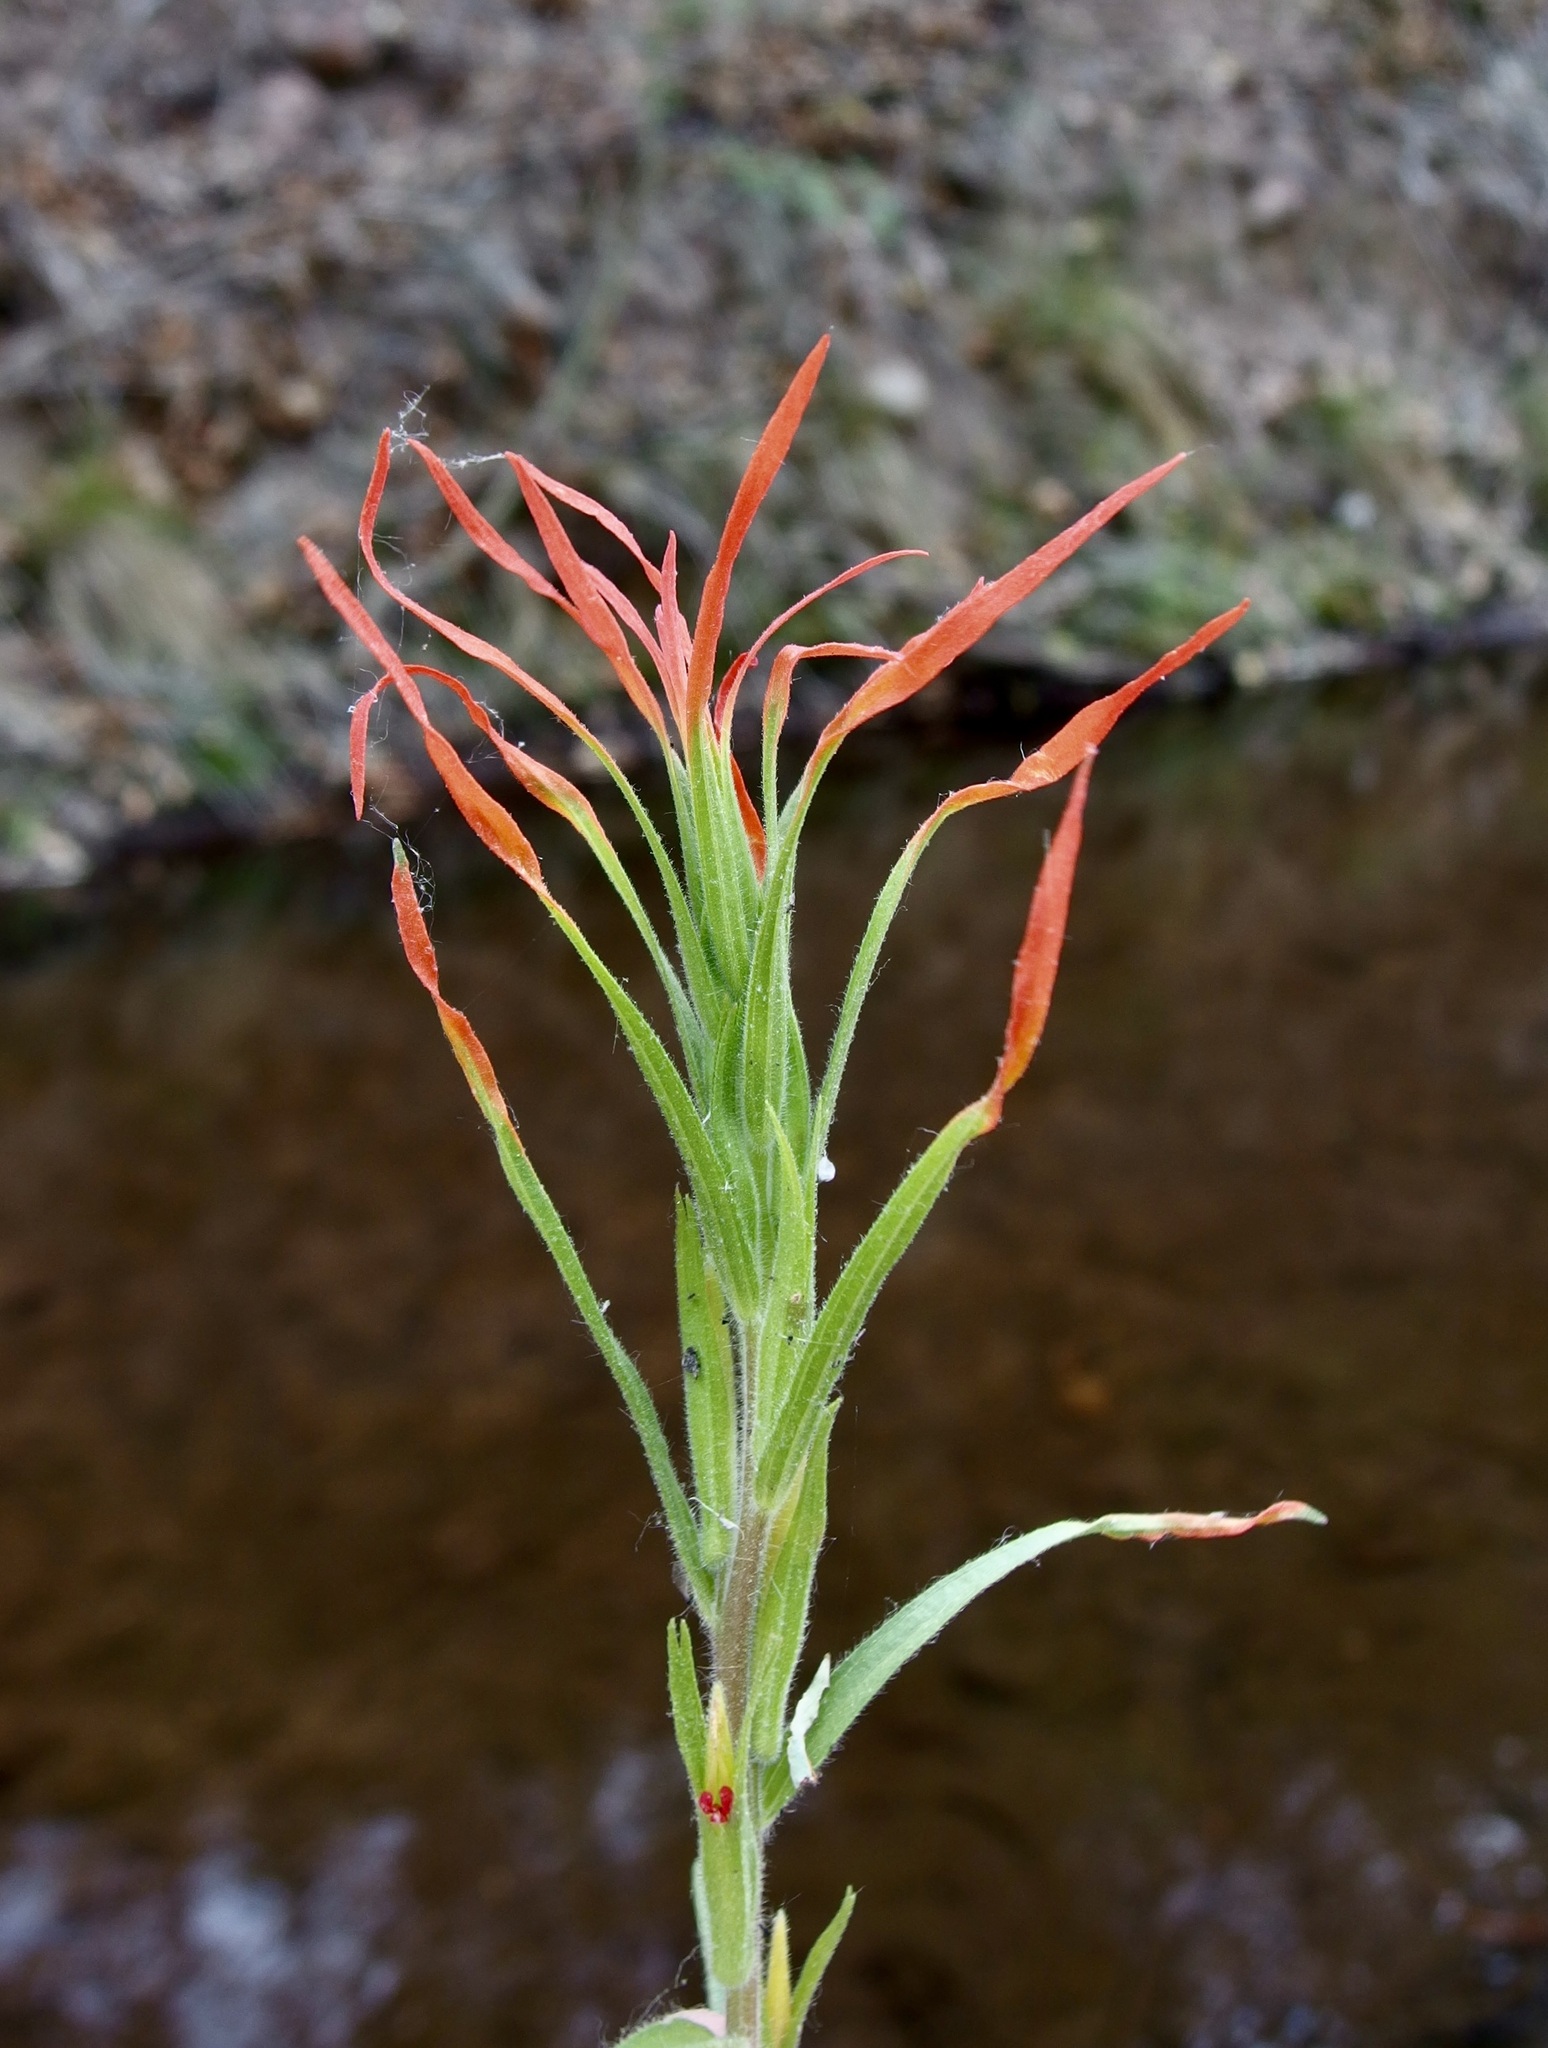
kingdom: Plantae
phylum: Tracheophyta
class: Magnoliopsida
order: Lamiales
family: Orobanchaceae
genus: Castilleja
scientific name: Castilleja minor
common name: Seep paintbrush
